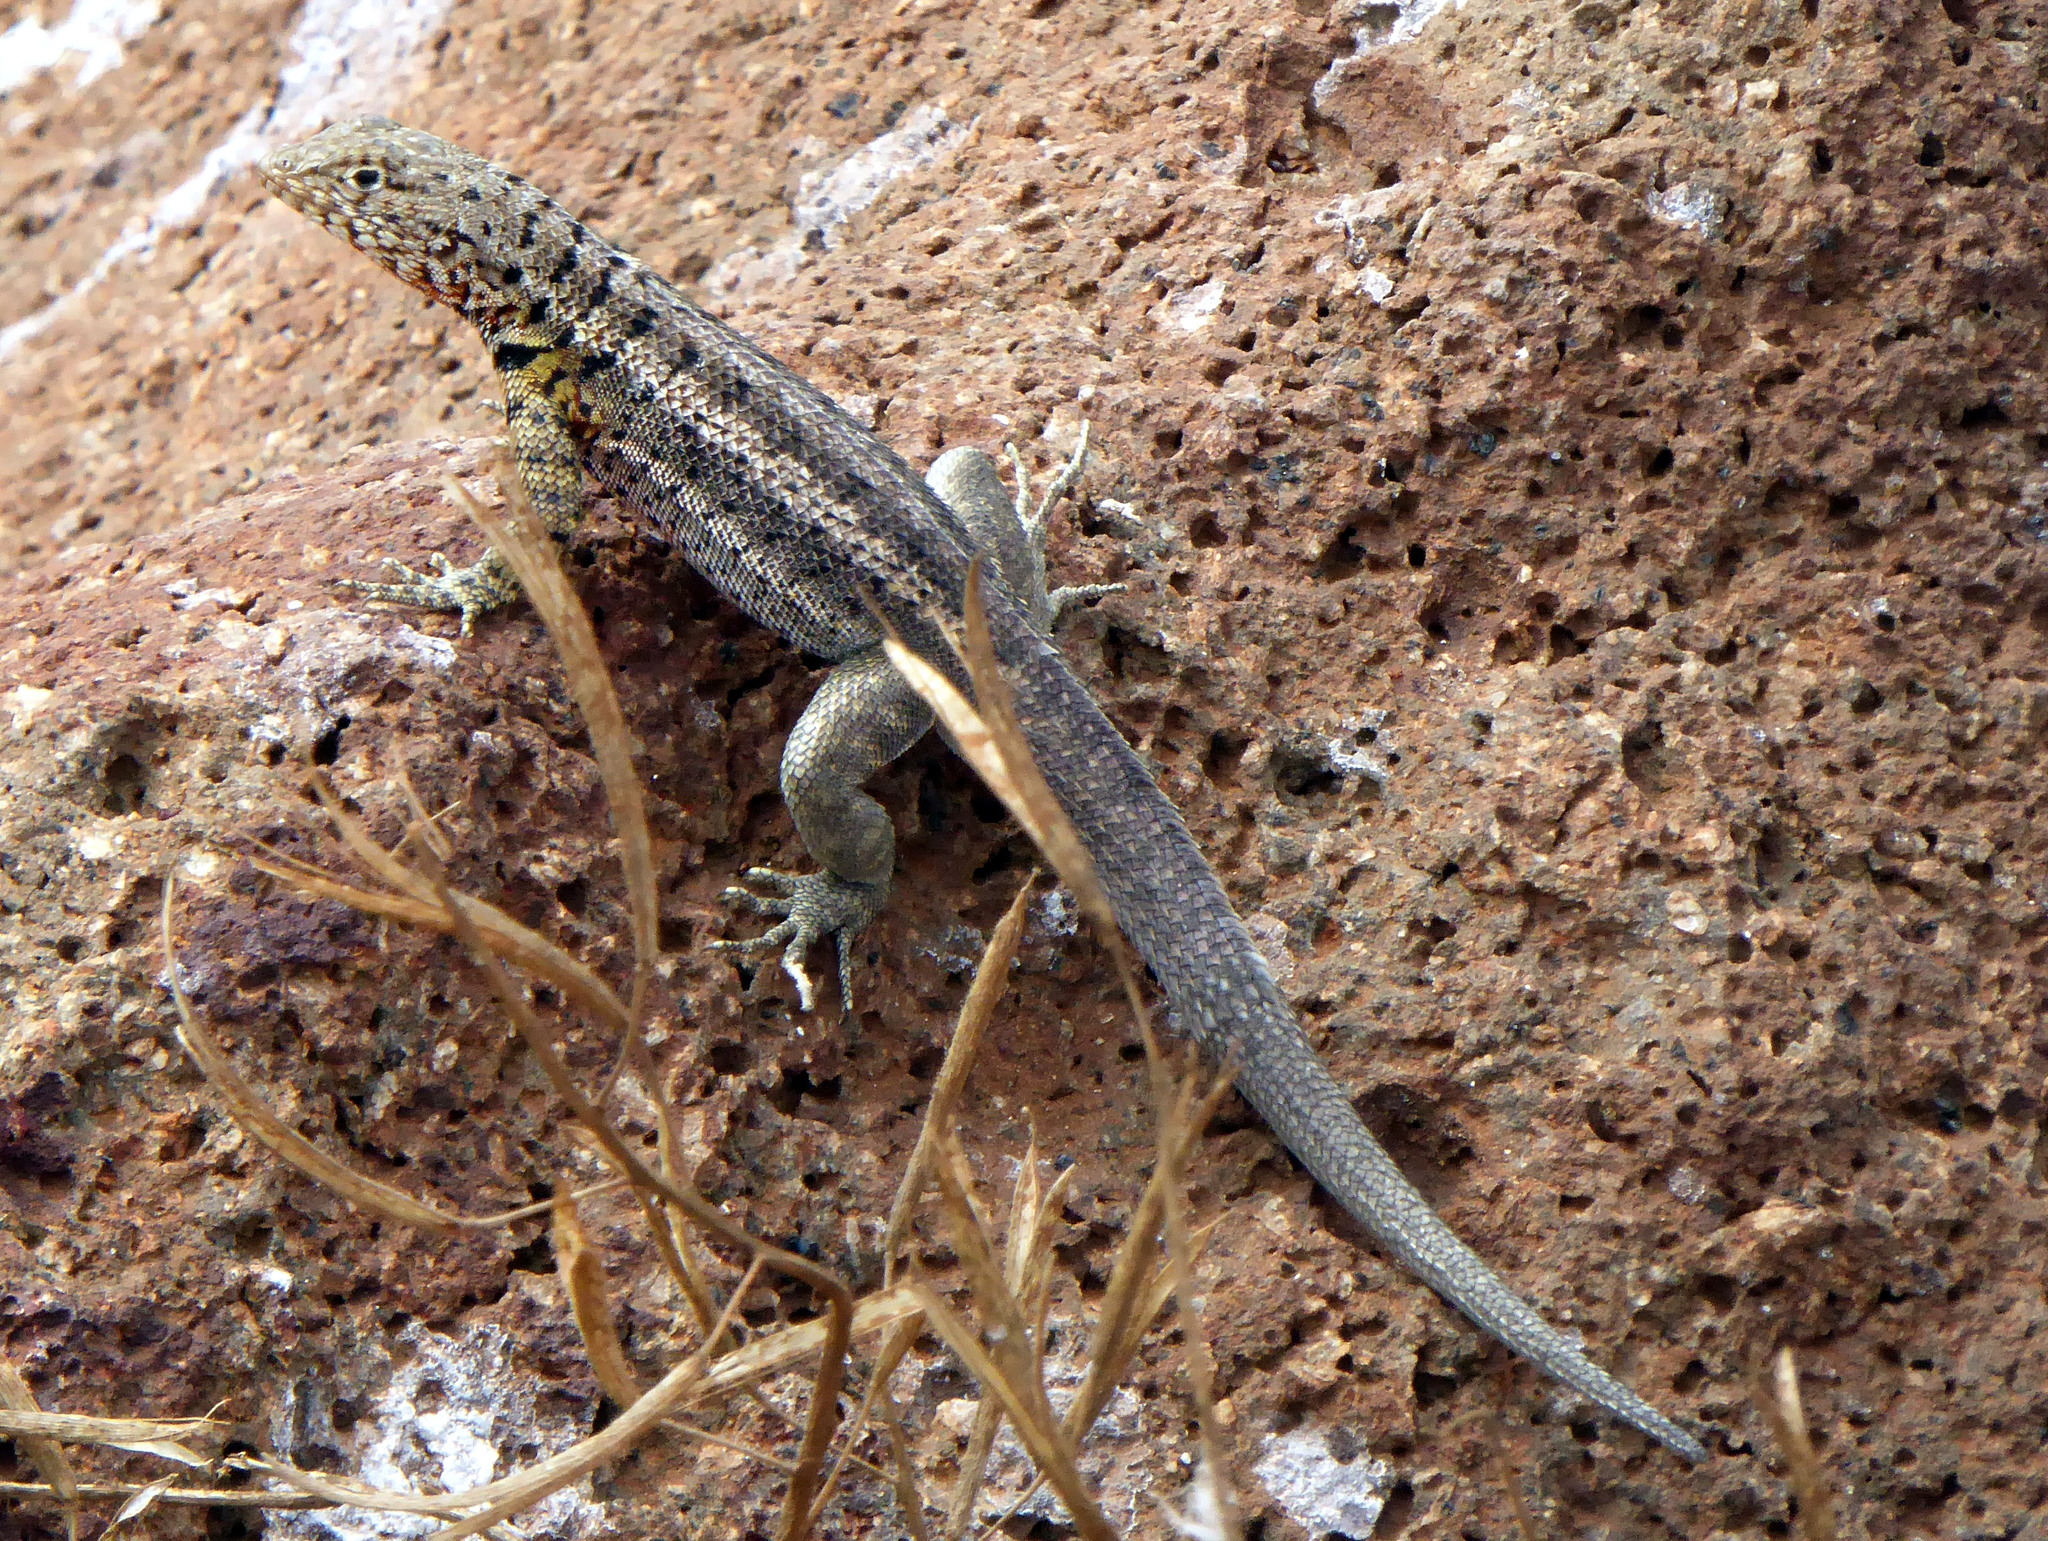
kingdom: Animalia
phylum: Chordata
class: Squamata
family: Tropiduridae
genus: Microlophus
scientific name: Microlophus indefatigabilis
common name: Galapagos lava lizard
